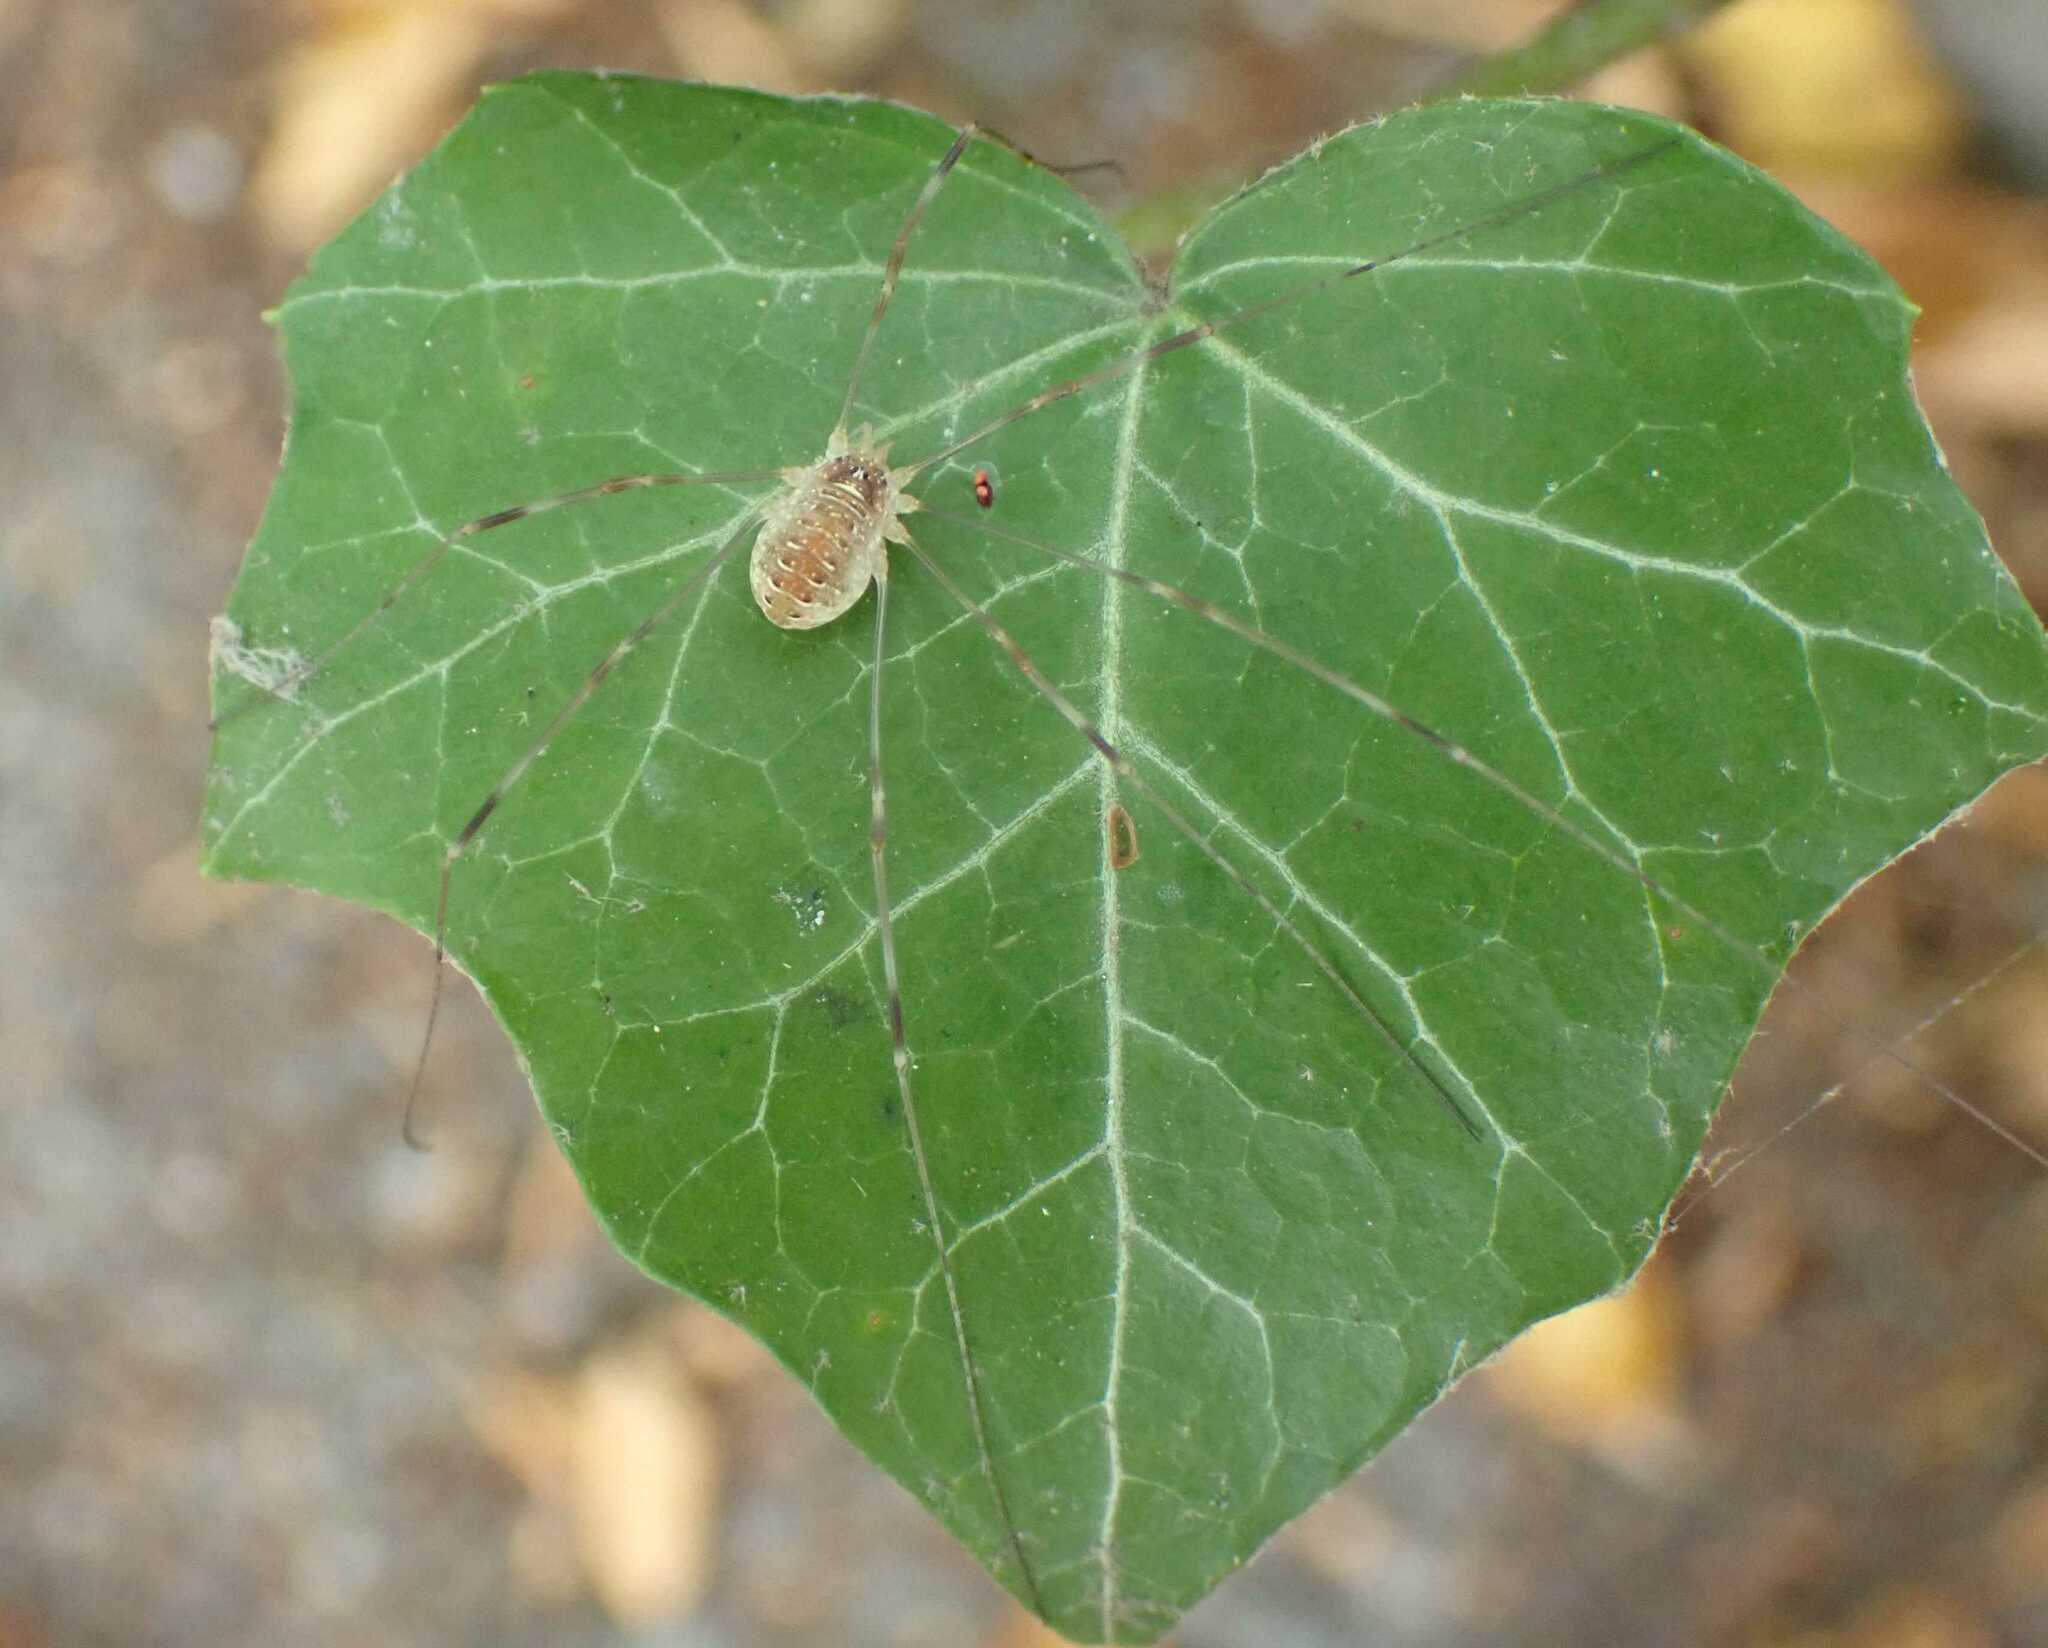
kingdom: Animalia
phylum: Arthropoda
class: Arachnida
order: Opiliones
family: Phalangiidae
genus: Opilio
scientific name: Opilio canestrinii
